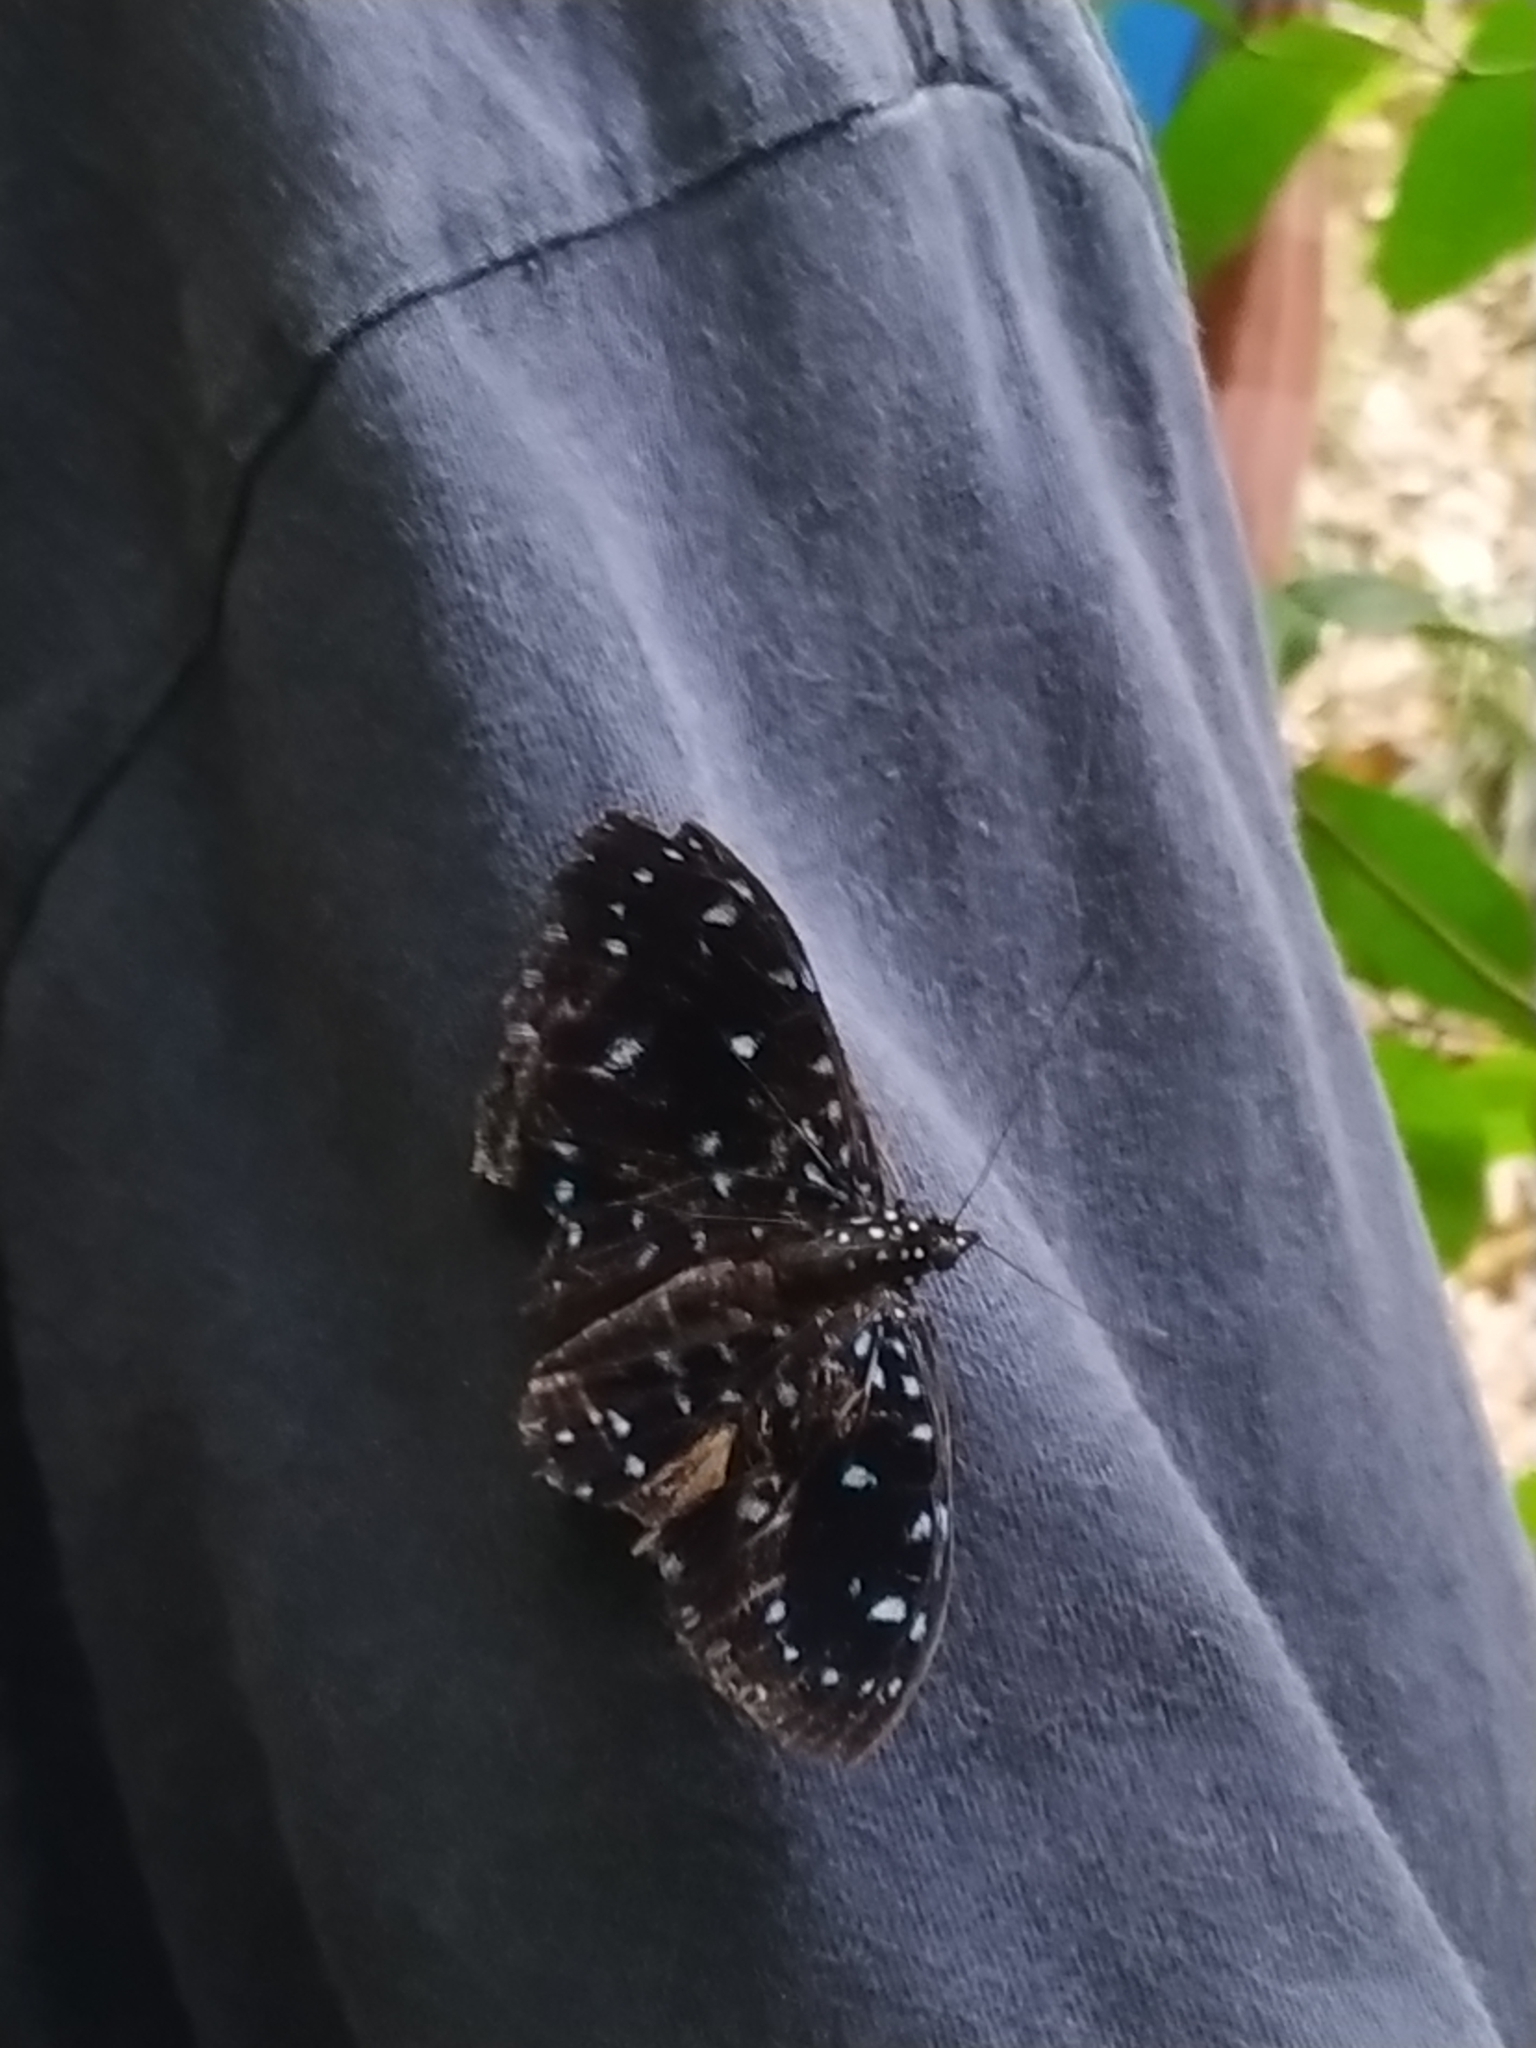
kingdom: Animalia
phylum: Arthropoda
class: Insecta
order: Lepidoptera
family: Nymphalidae
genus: Hamadryas
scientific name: Hamadryas laodamia
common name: Starry night cracker
